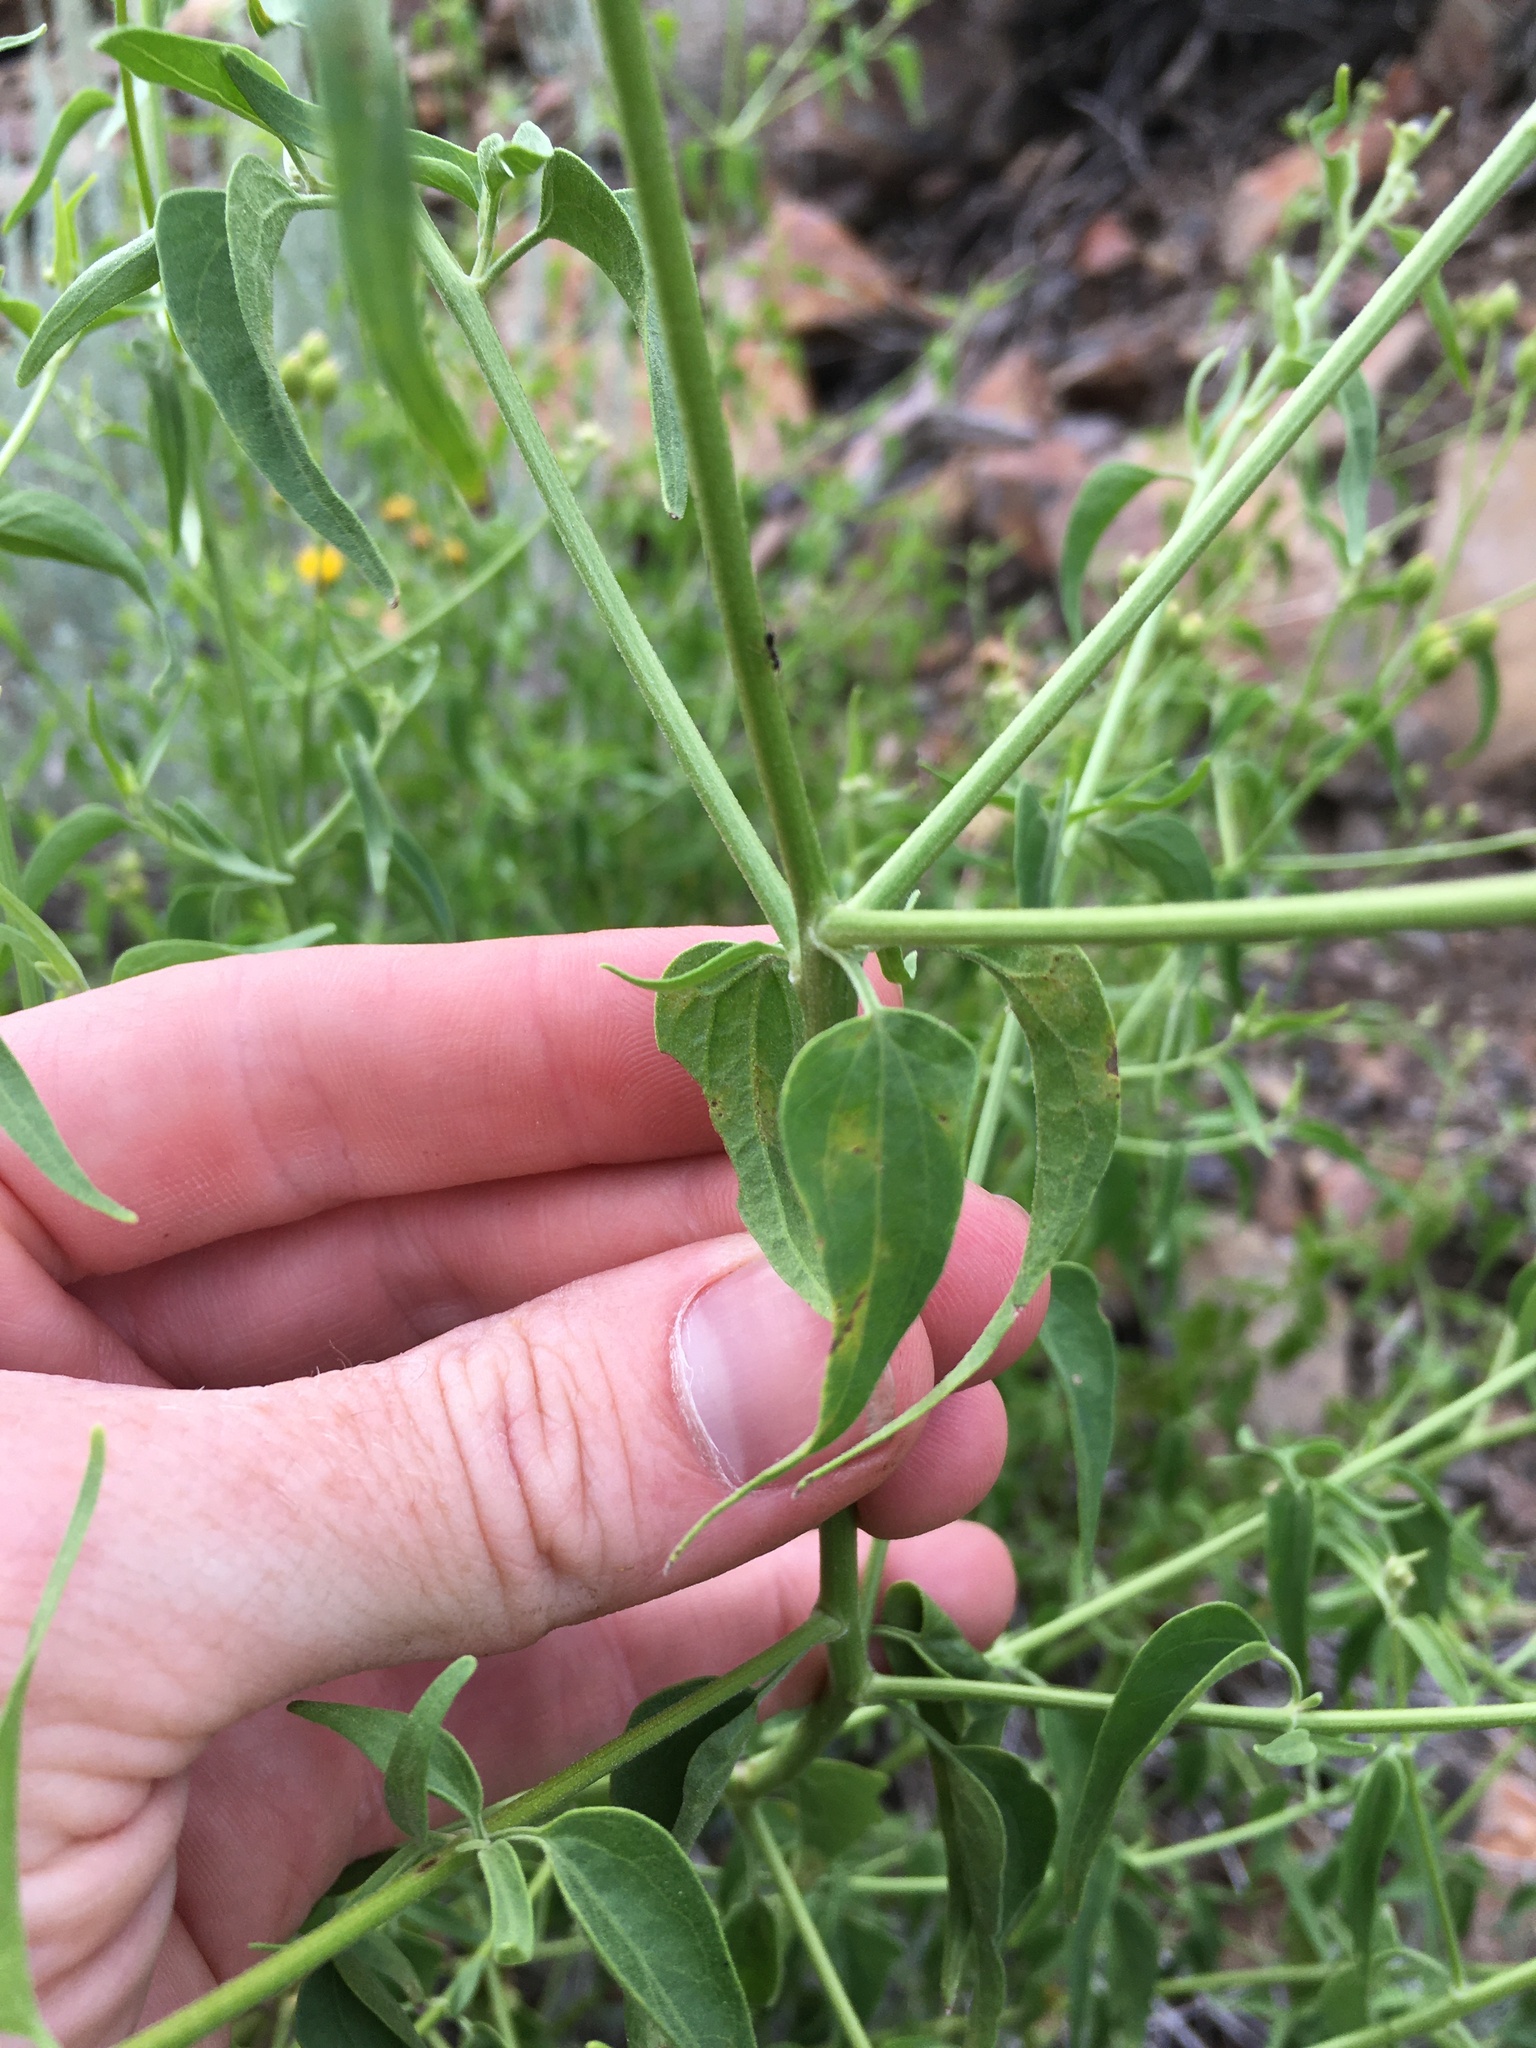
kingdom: Plantae
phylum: Tracheophyta
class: Magnoliopsida
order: Asterales
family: Asteraceae
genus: Pericome
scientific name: Pericome caudata
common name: Taperleaf
